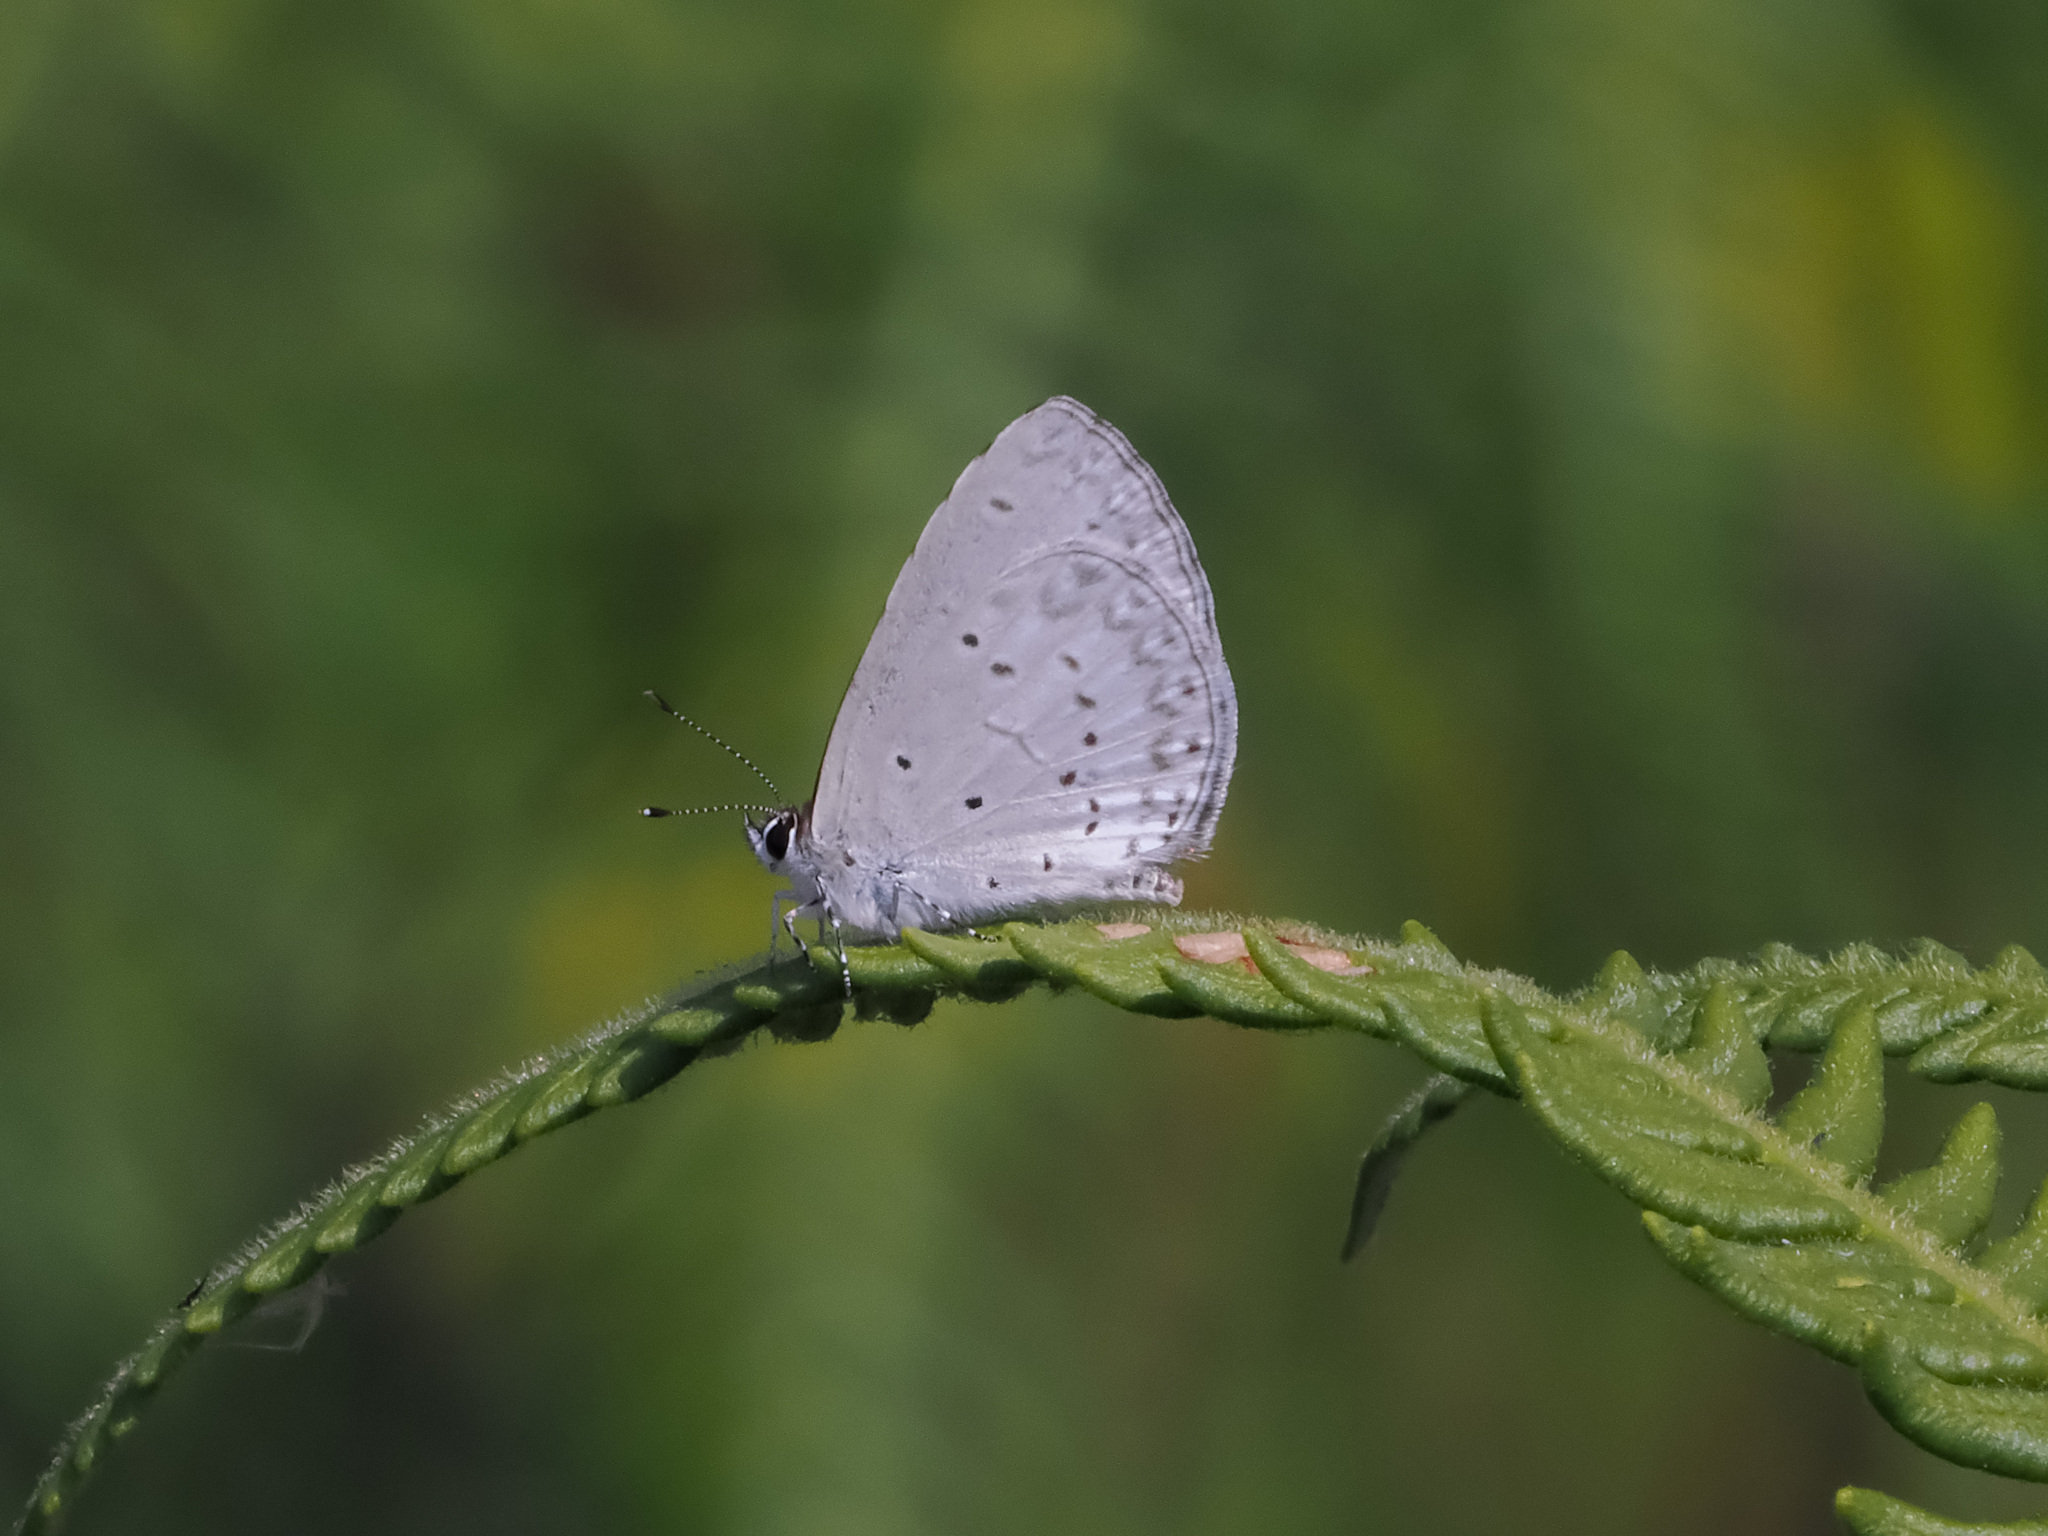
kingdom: Animalia
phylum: Arthropoda
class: Insecta
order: Lepidoptera
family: Lycaenidae
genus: Celastrina
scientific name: Celastrina argiolus
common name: Holly blue
